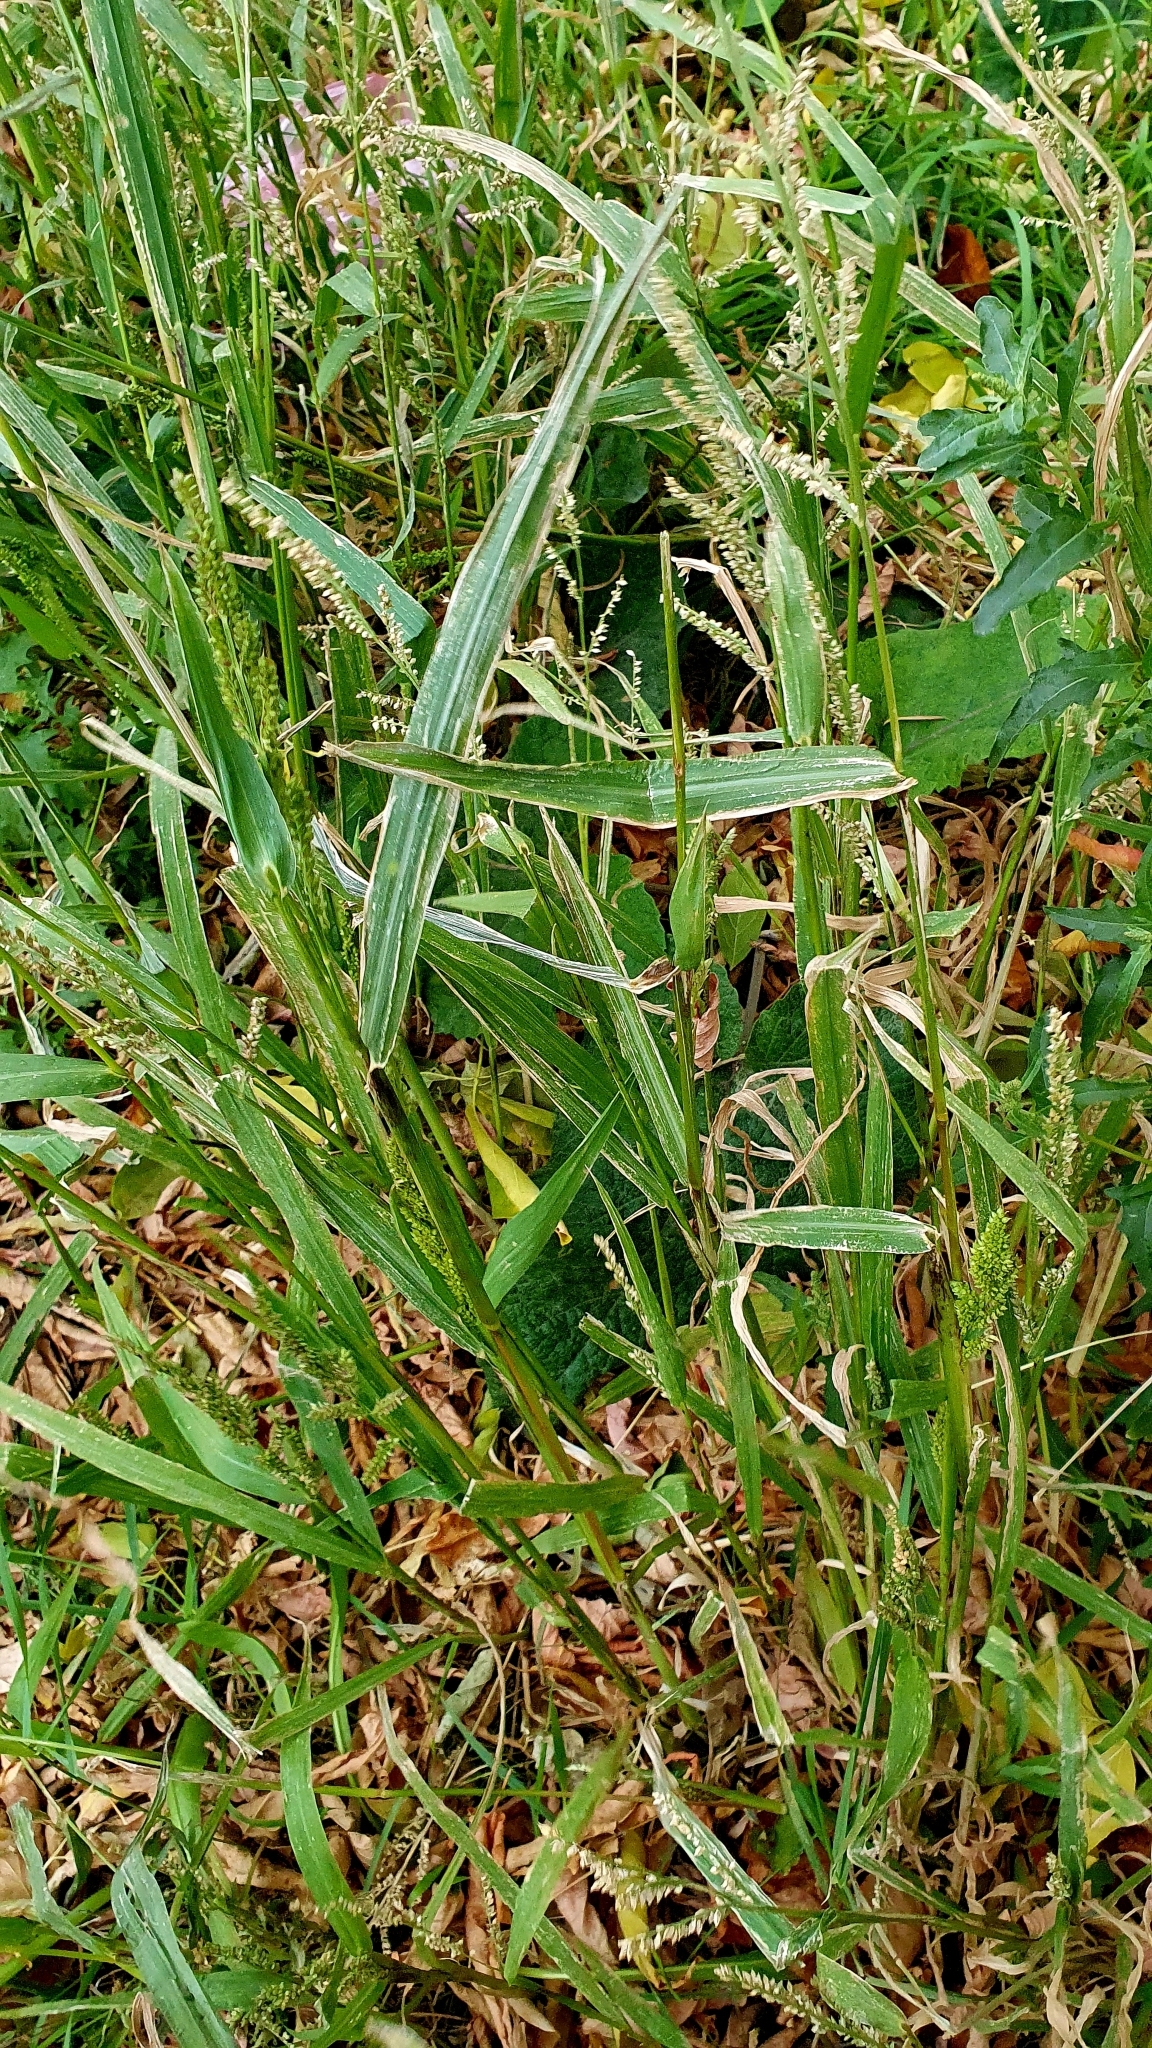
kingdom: Plantae
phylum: Tracheophyta
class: Liliopsida
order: Poales
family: Poaceae
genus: Echinochloa
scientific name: Echinochloa crus-galli
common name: Cockspur
